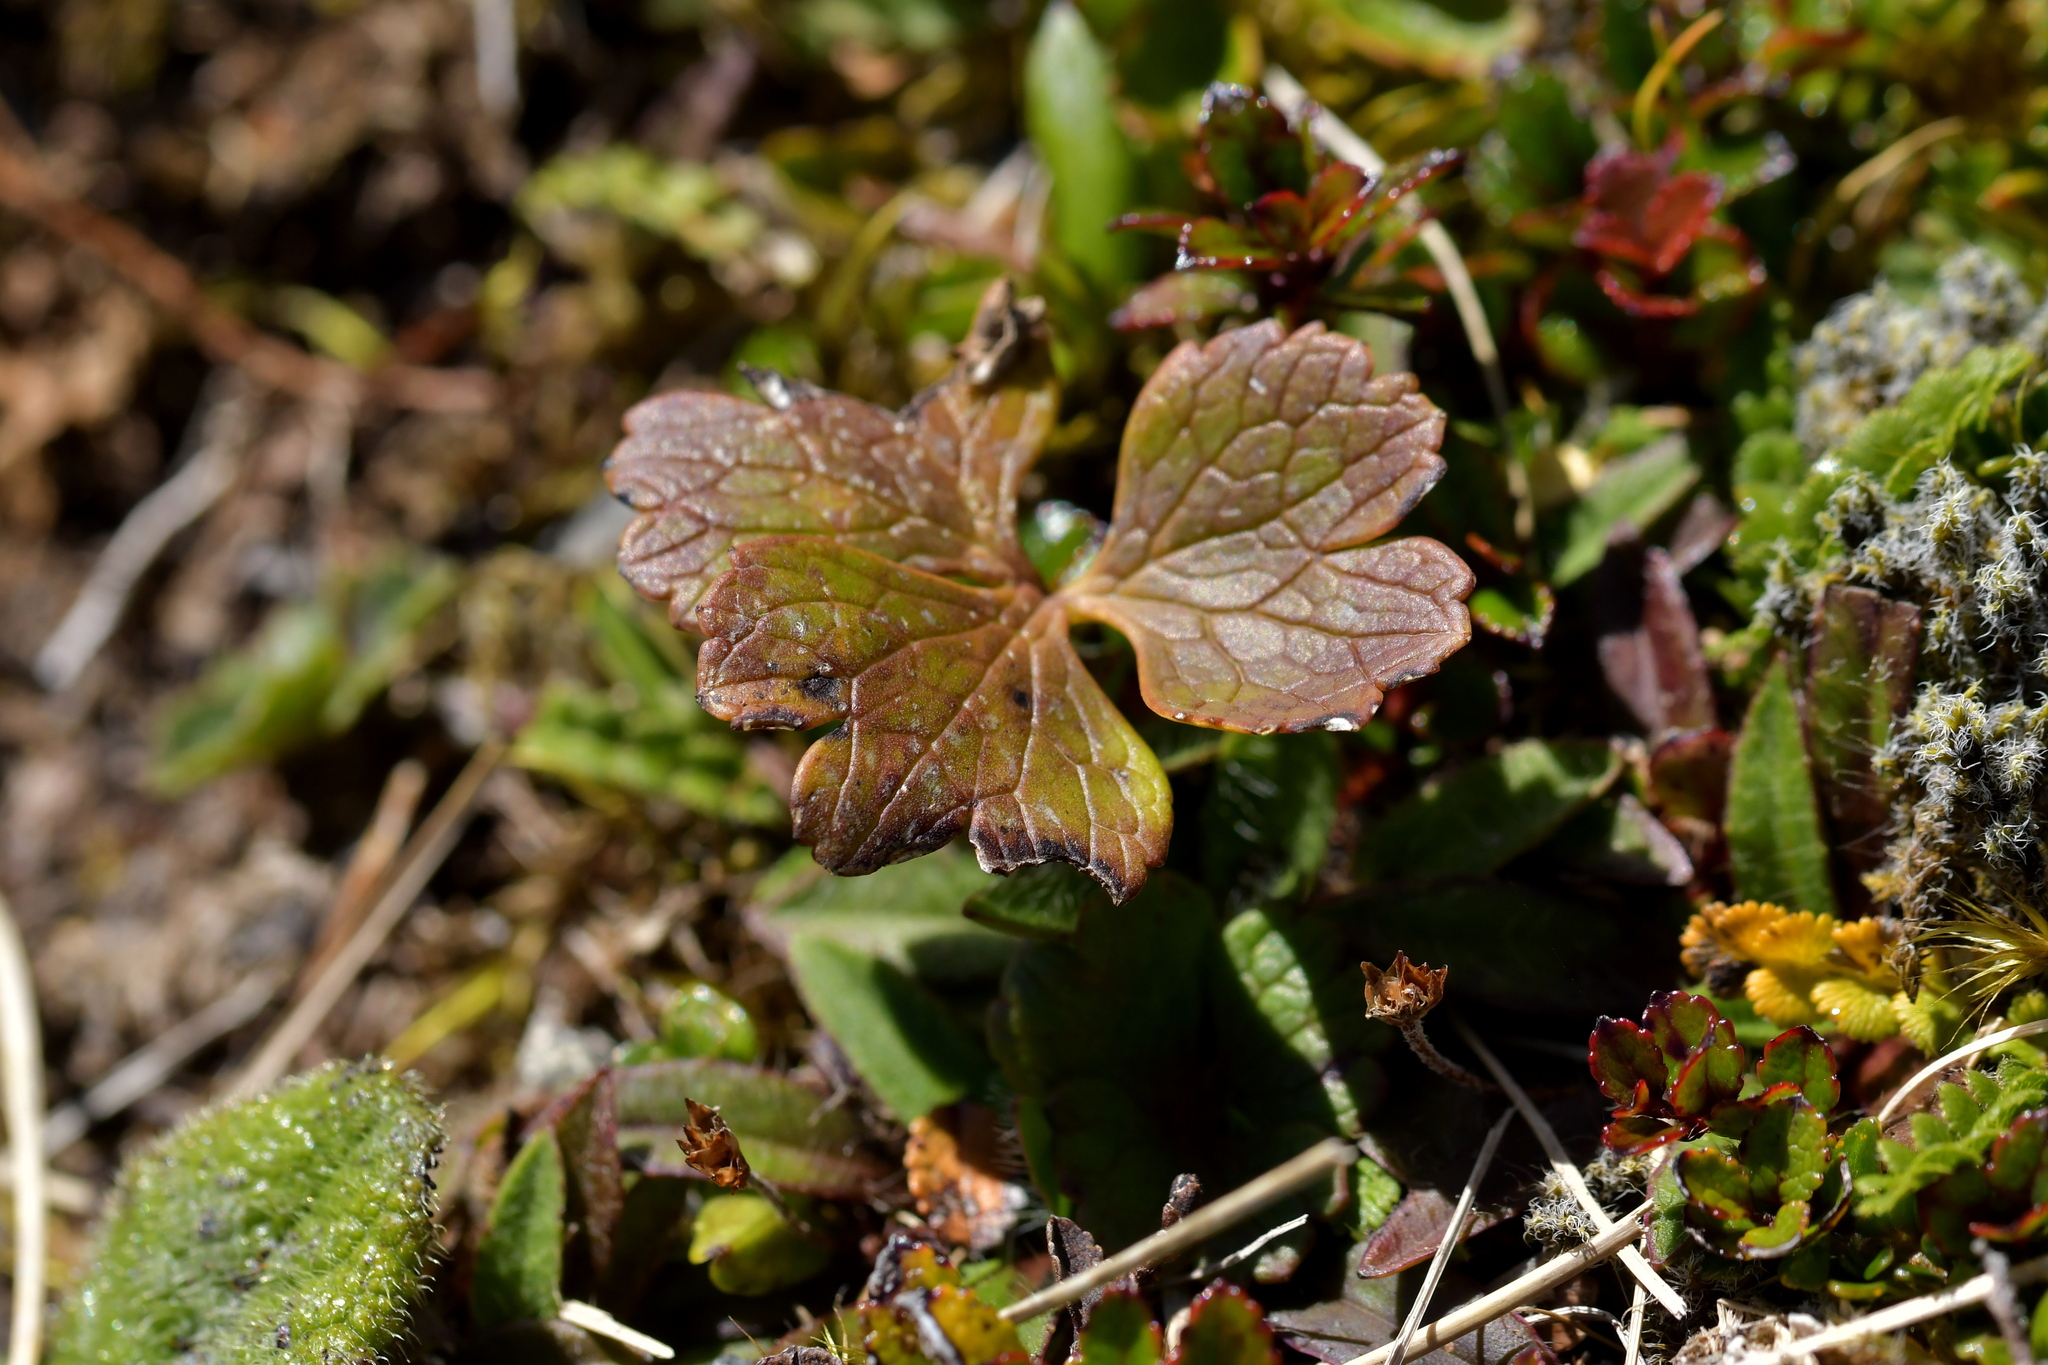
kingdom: Plantae
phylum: Tracheophyta
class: Magnoliopsida
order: Ranunculales
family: Ranunculaceae
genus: Ranunculus
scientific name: Ranunculus verticillatus
